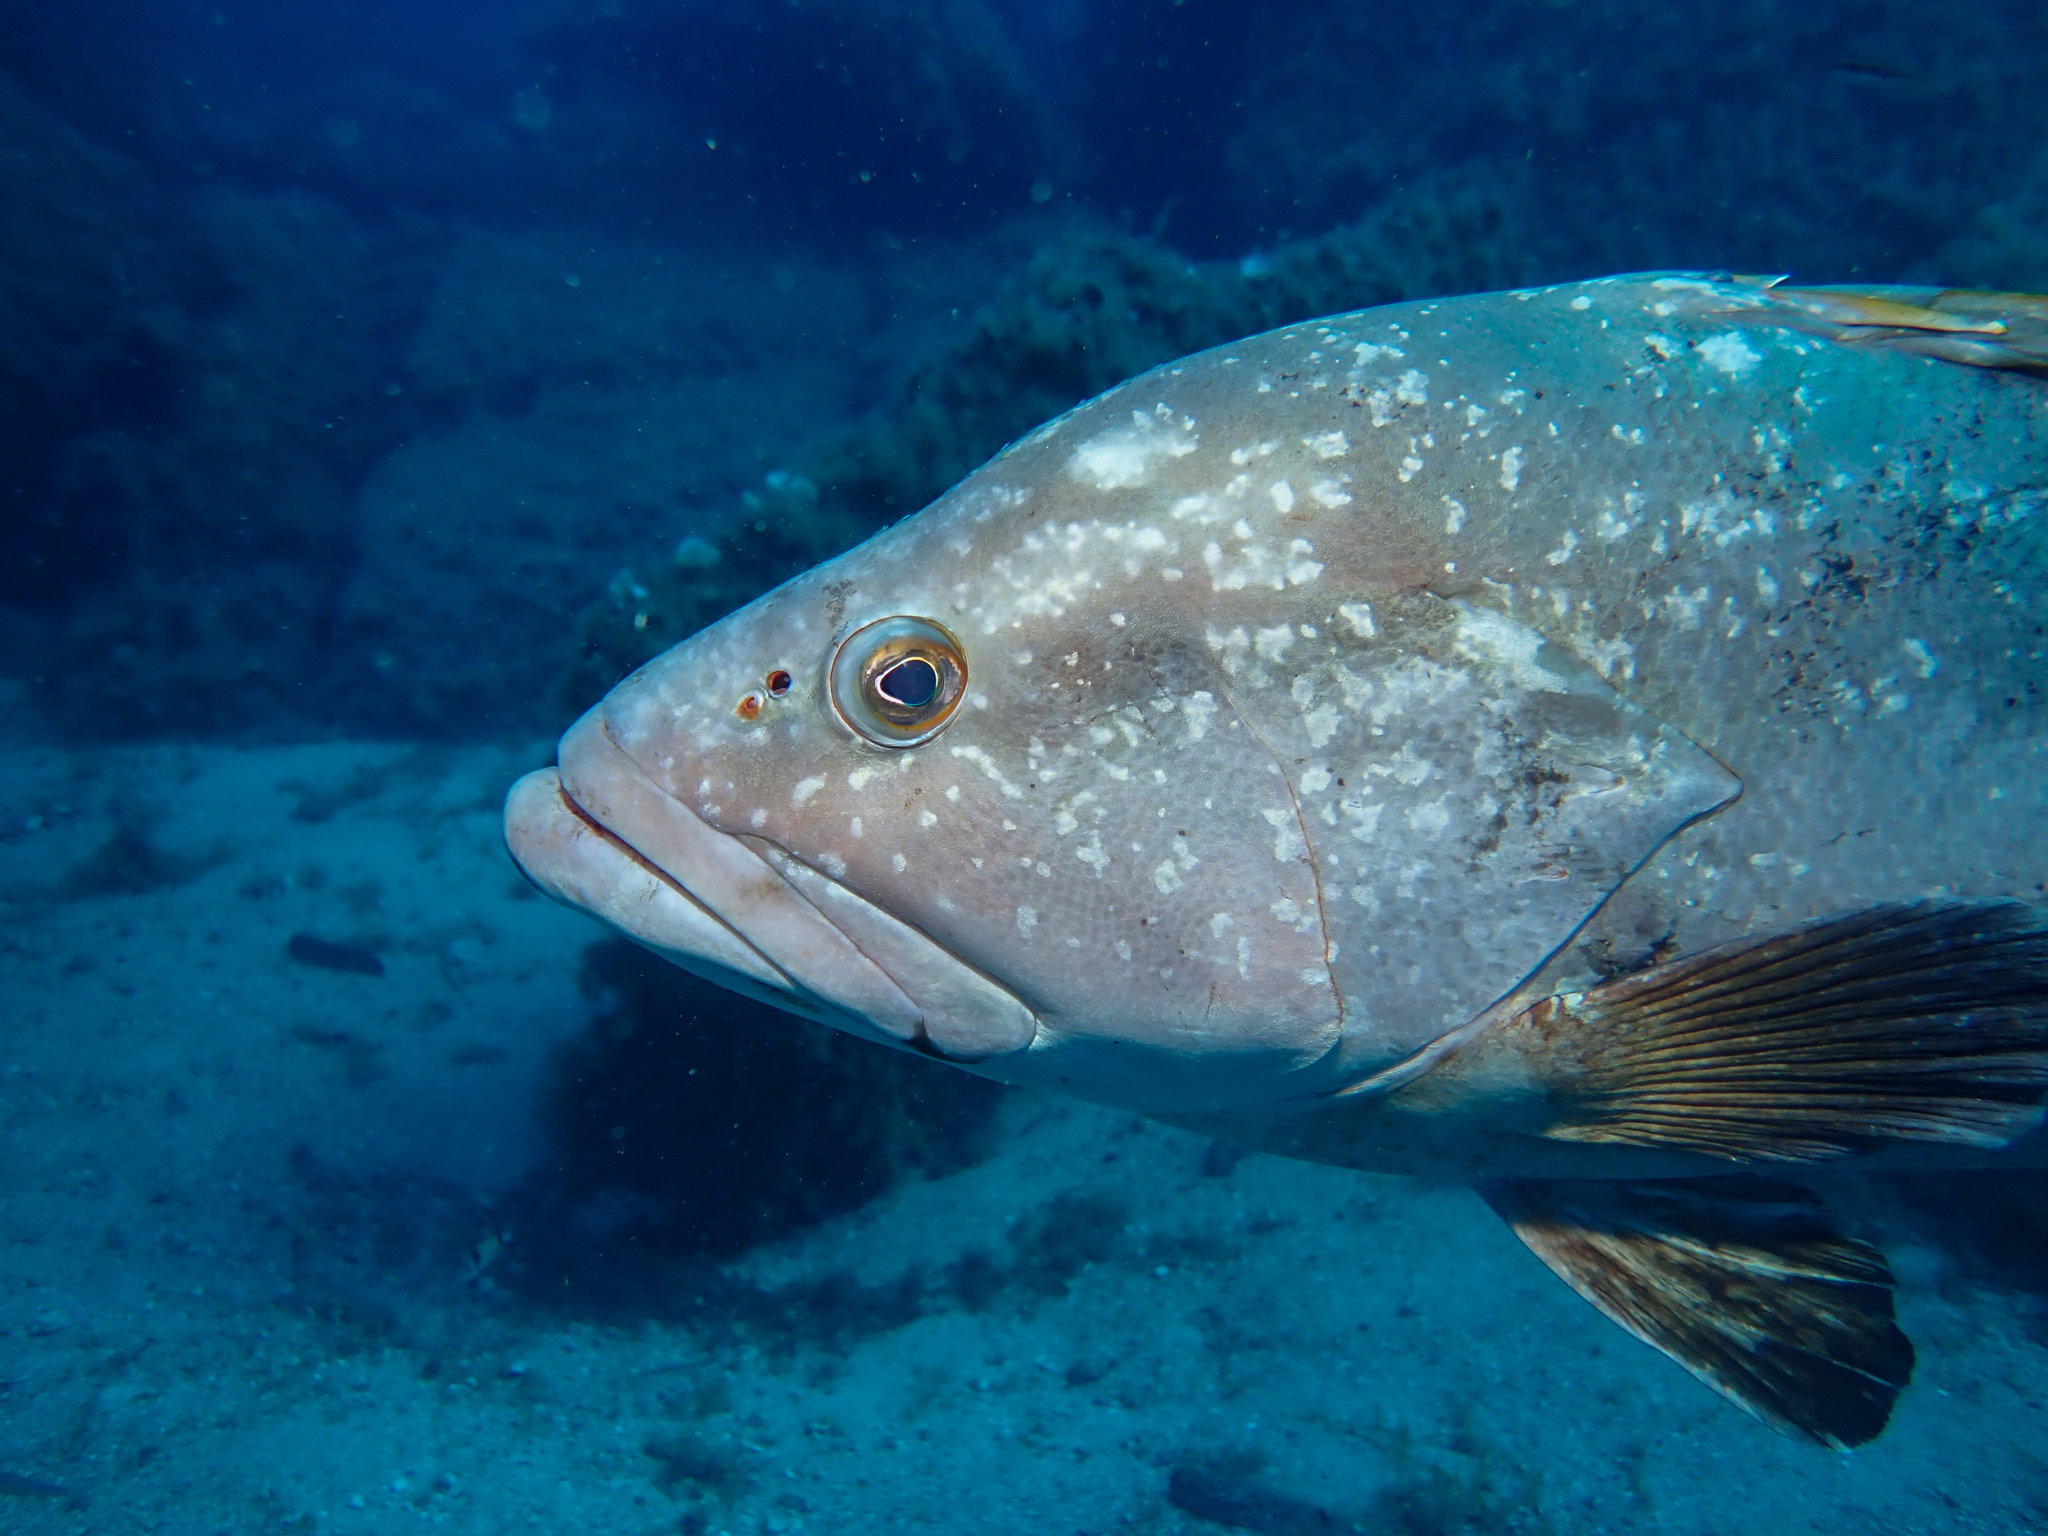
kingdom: Animalia
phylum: Chordata
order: Perciformes
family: Serranidae
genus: Epinephelus
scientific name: Epinephelus marginatus
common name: Dusky grouper
